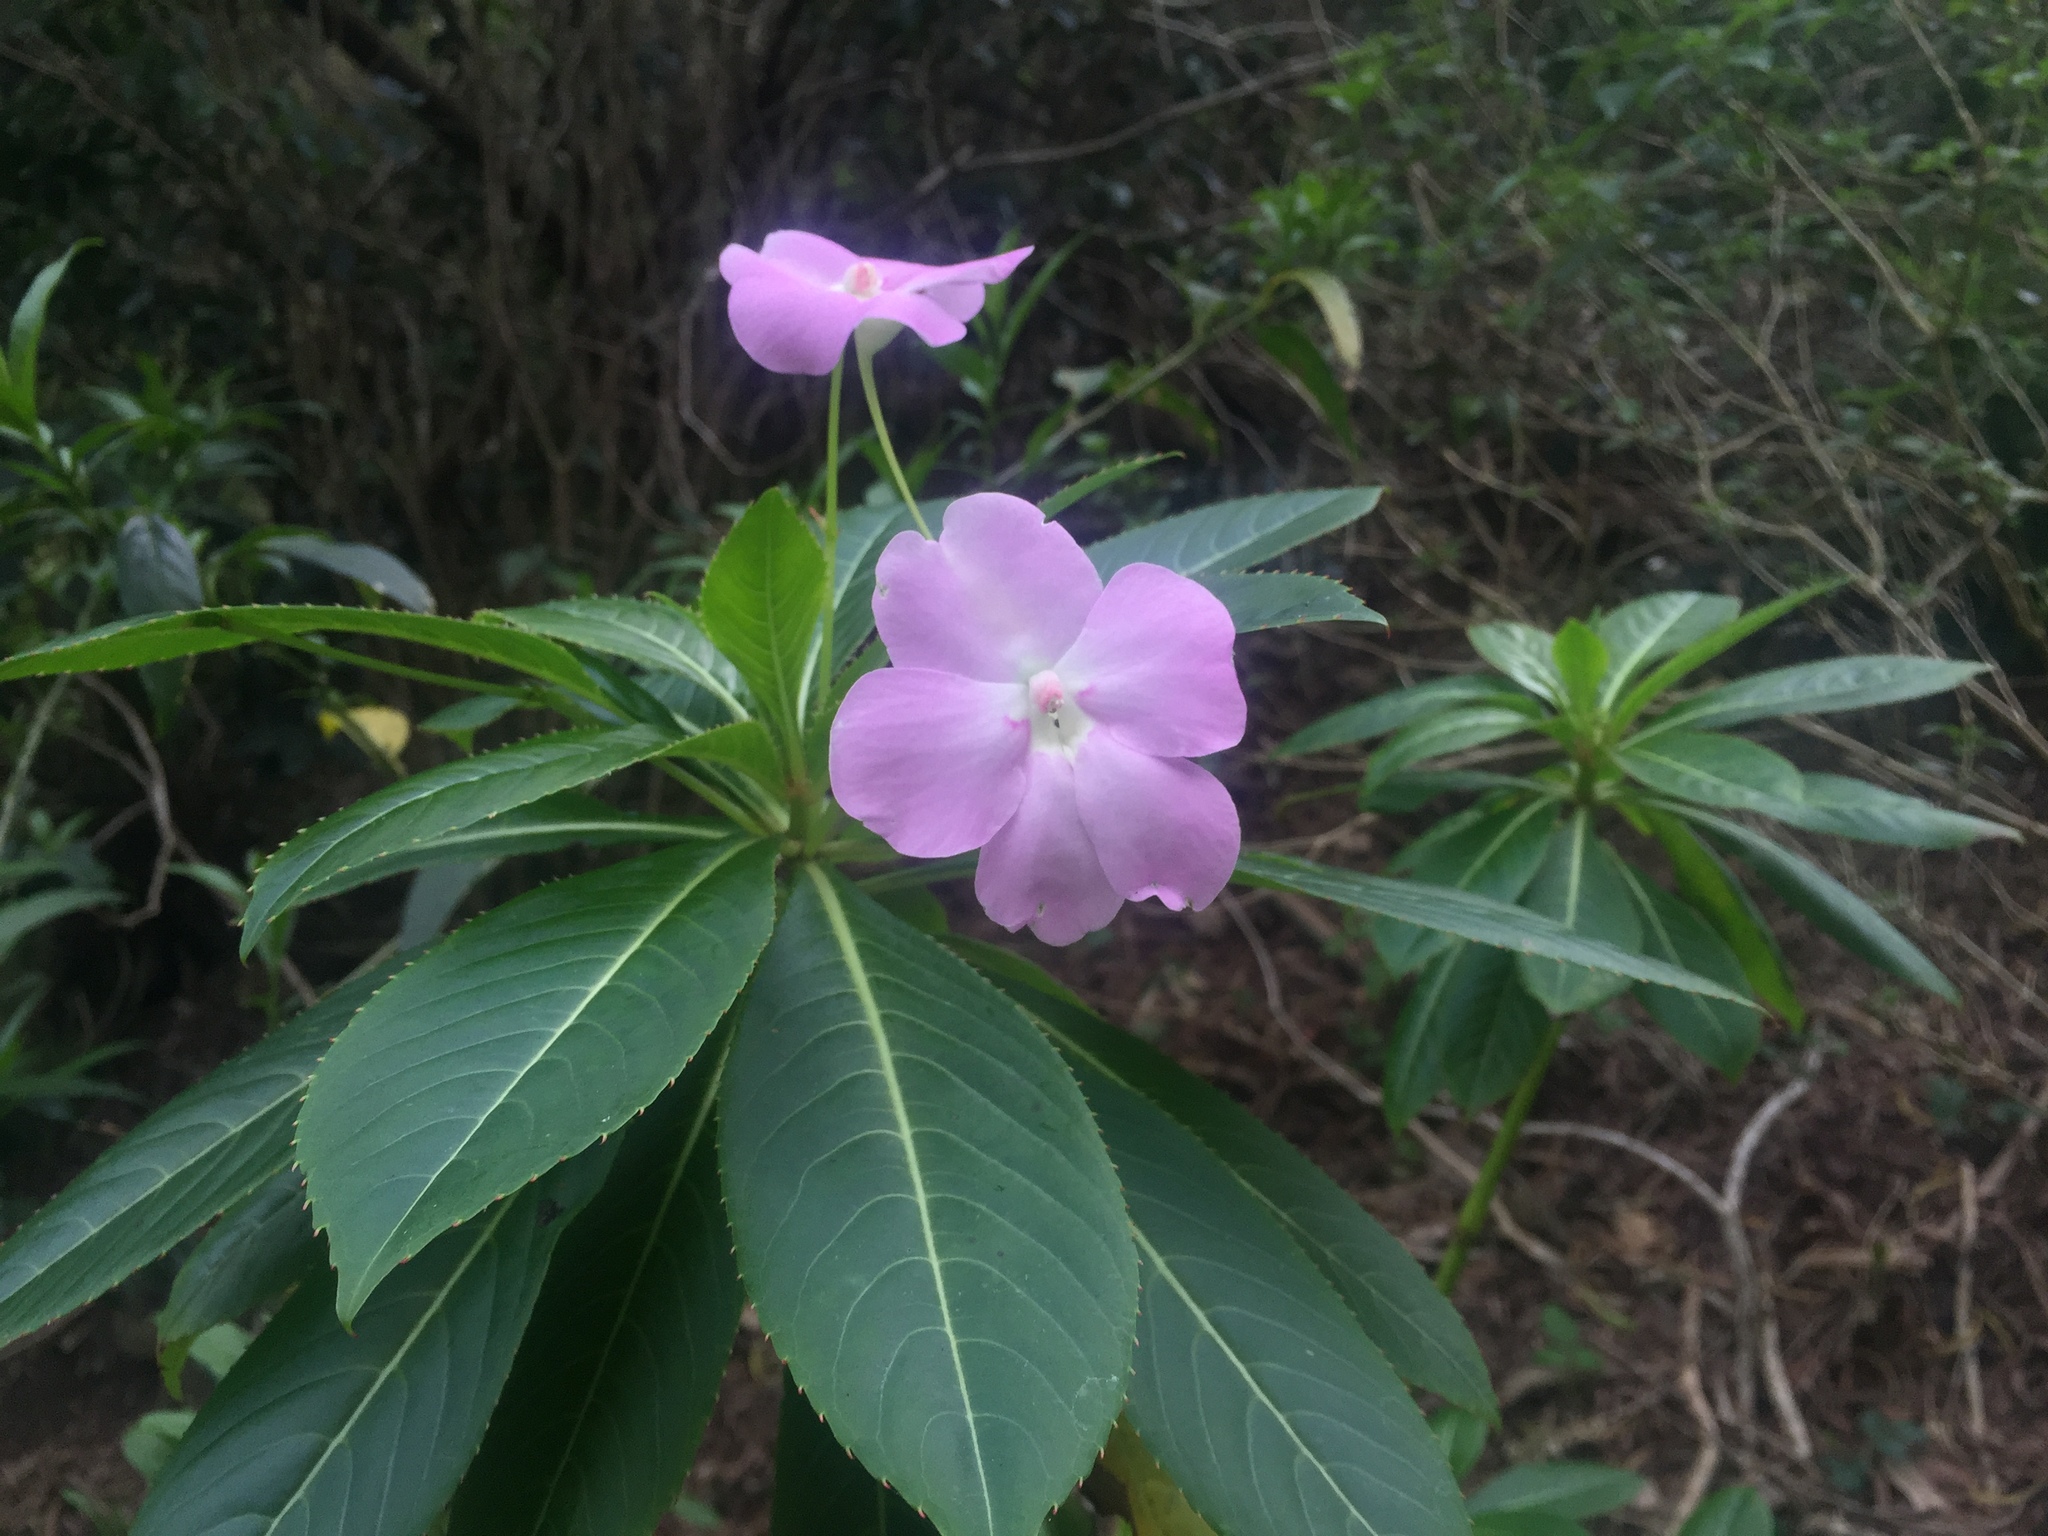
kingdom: Plantae
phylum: Tracheophyta
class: Magnoliopsida
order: Ericales
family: Balsaminaceae
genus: Impatiens
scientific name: Impatiens sodenii
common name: Oliver's touch-me-not
